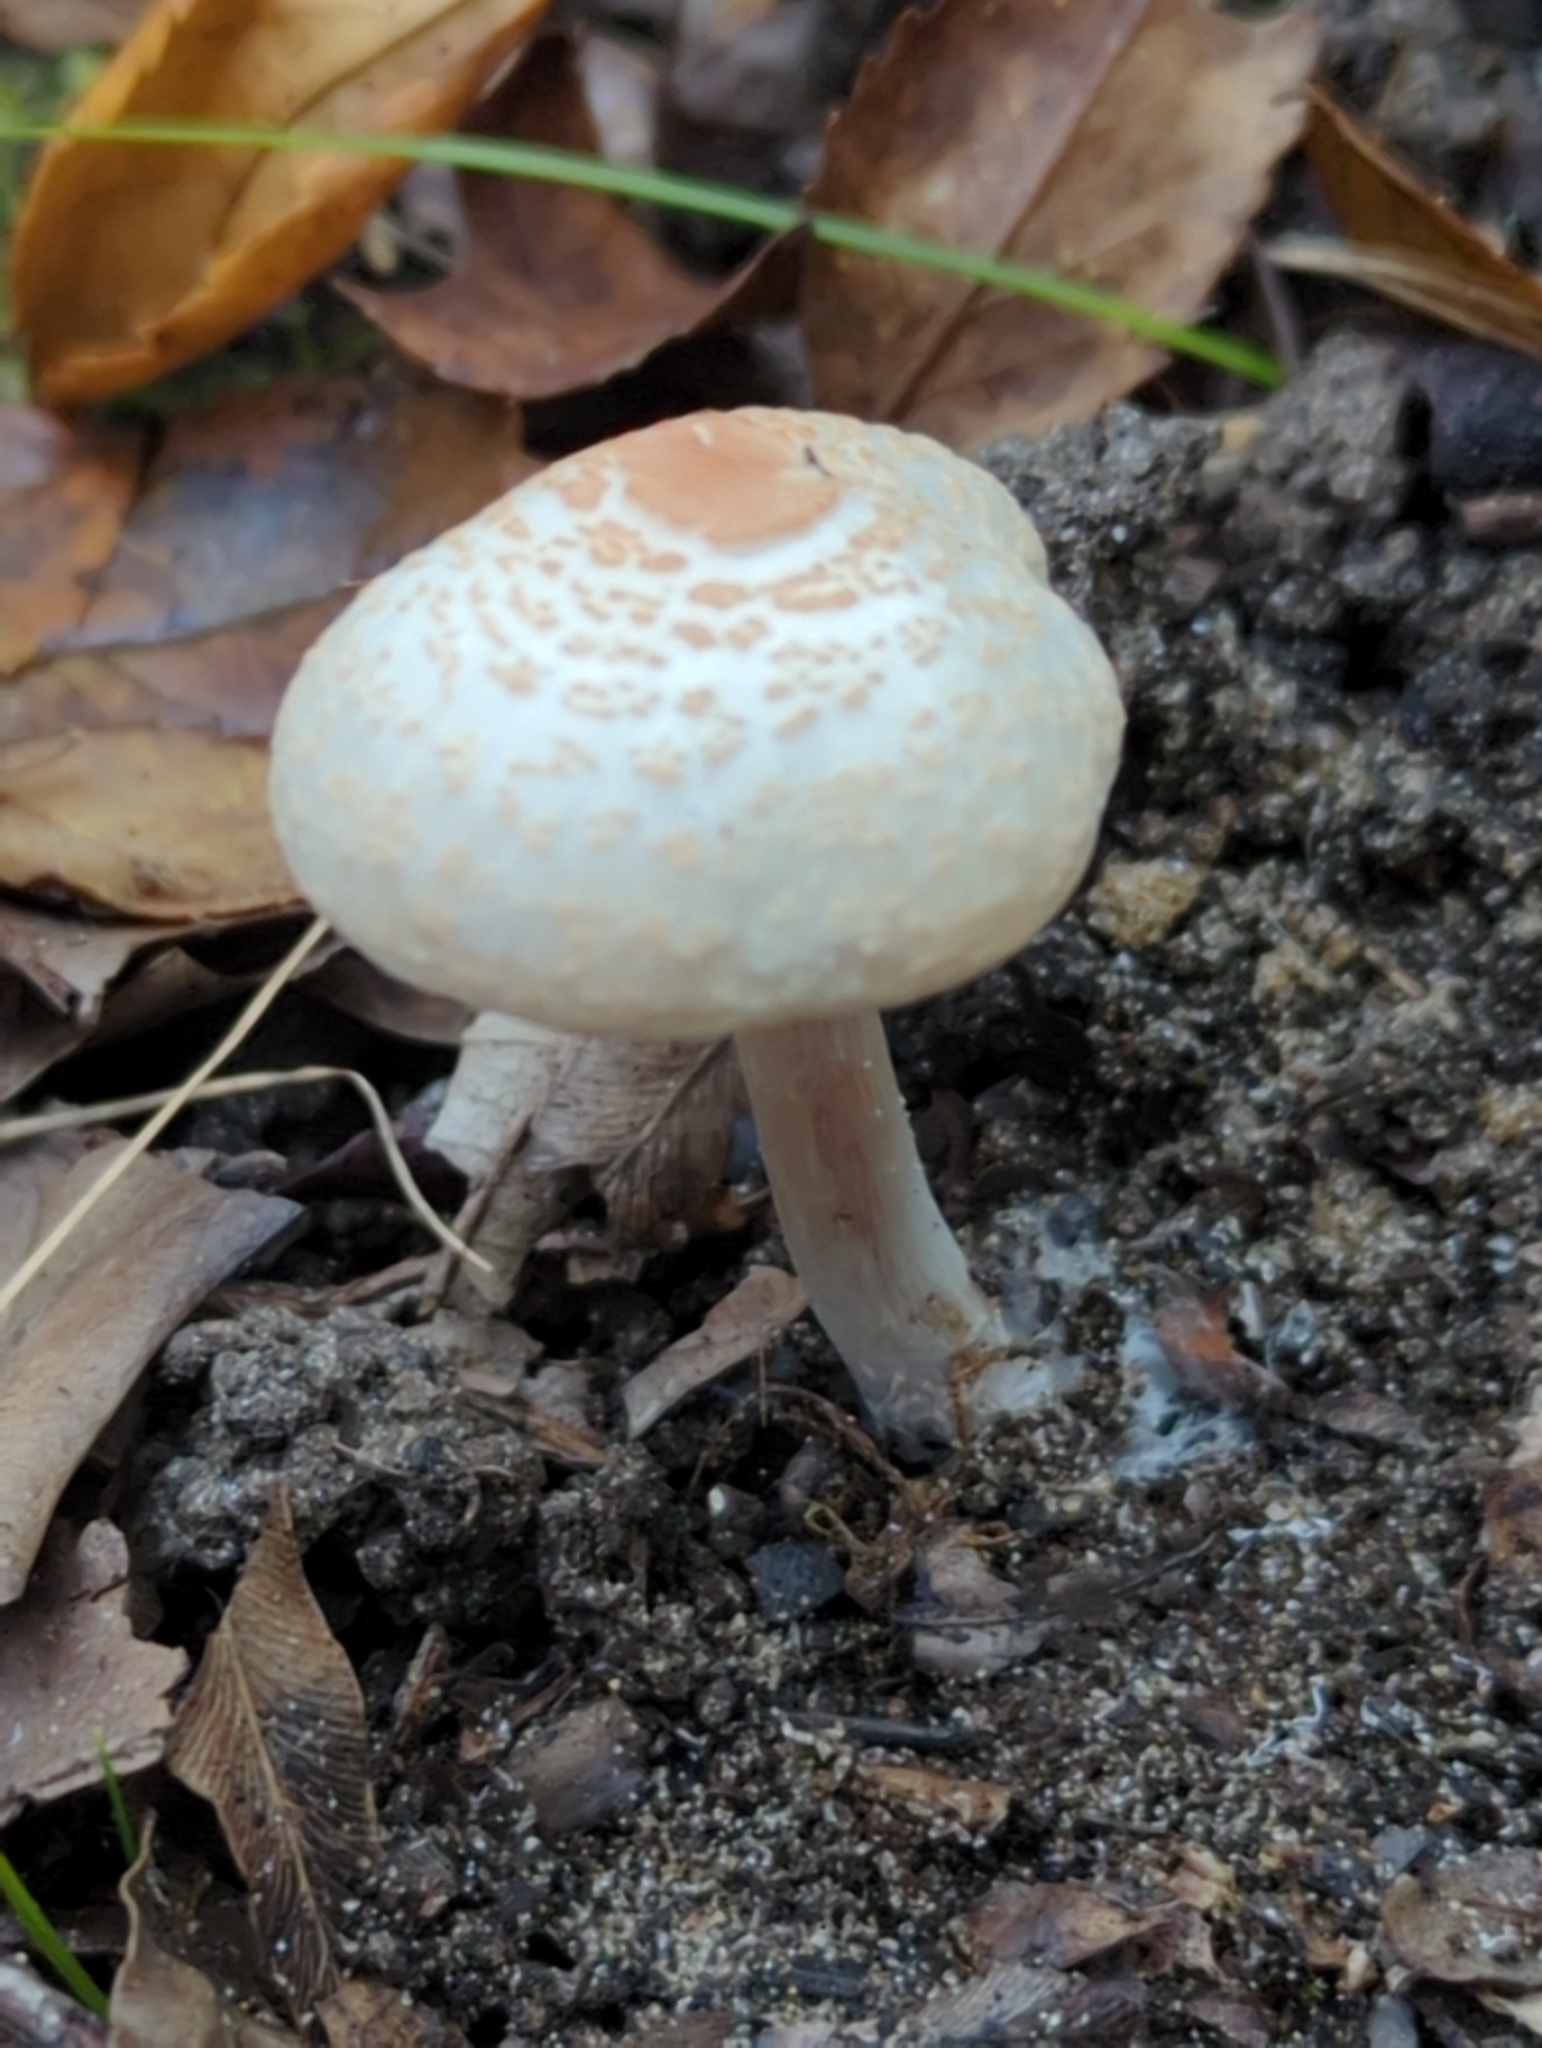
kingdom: Fungi
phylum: Basidiomycota
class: Agaricomycetes
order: Agaricales
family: Agaricaceae
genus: Lepiota
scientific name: Lepiota cristata
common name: Stinking dapperling
